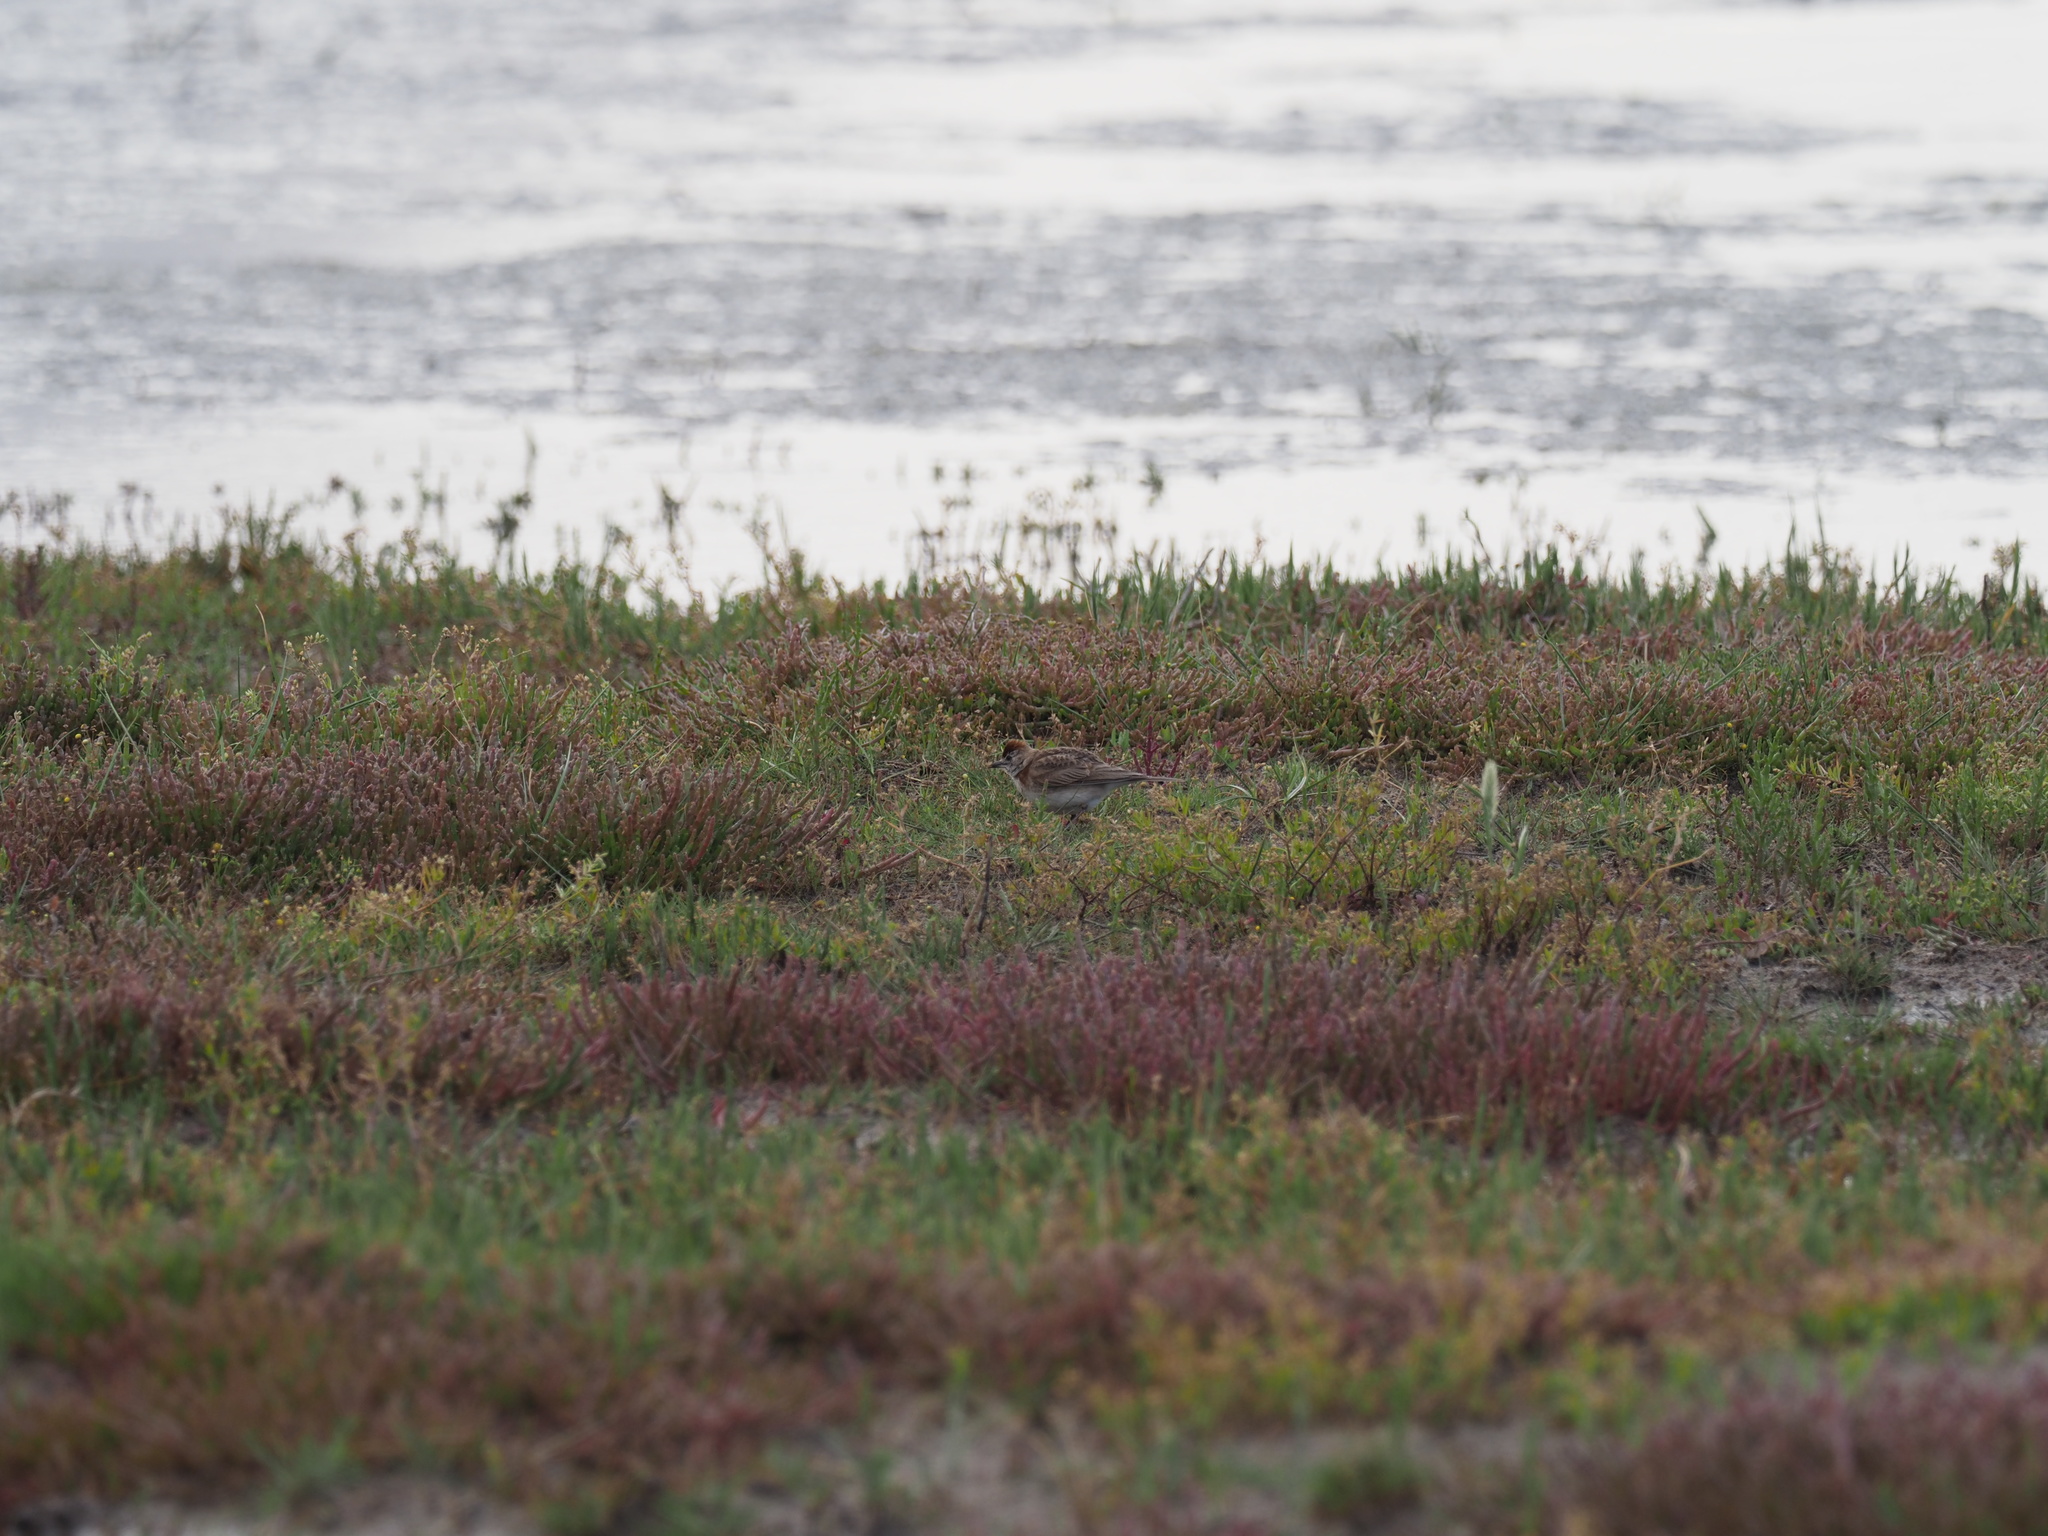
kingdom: Animalia
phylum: Chordata
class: Aves
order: Passeriformes
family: Alaudidae
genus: Calandrella
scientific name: Calandrella cinerea
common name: Red-capped lark
